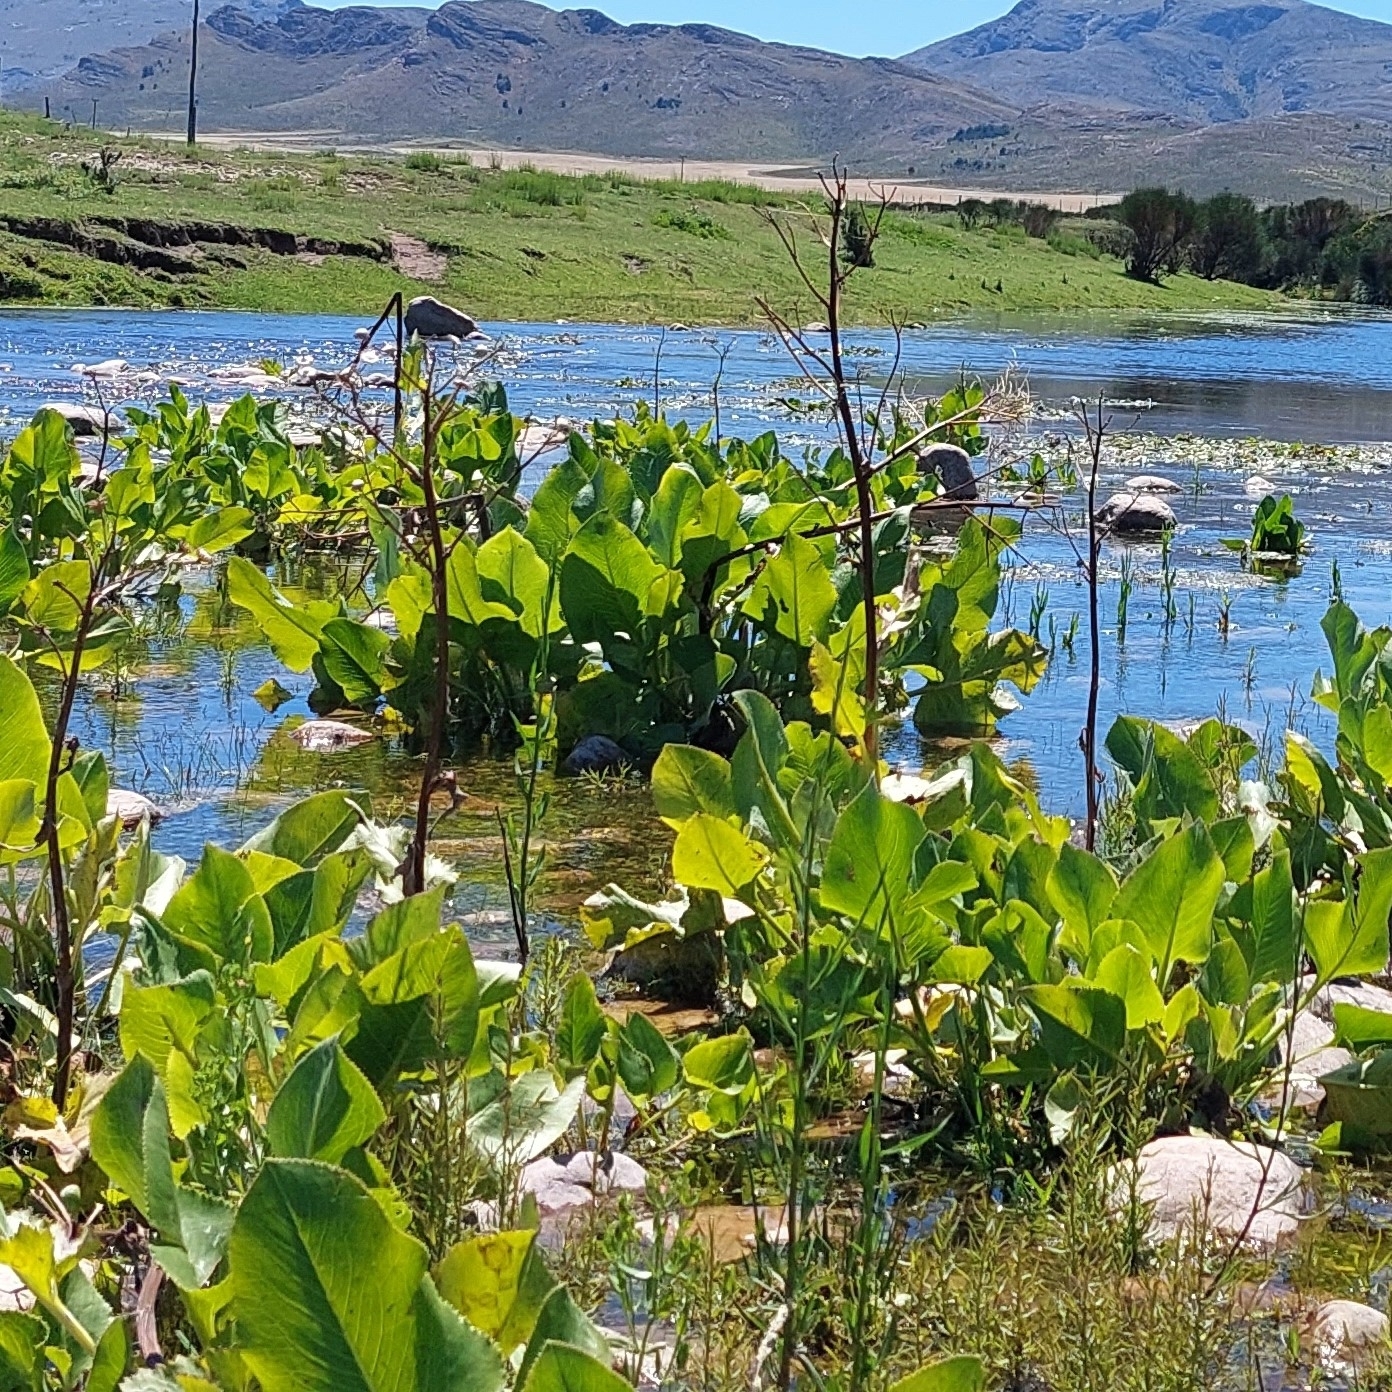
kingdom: Plantae
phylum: Tracheophyta
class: Magnoliopsida
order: Asterales
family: Asteraceae
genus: Senecio
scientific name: Senecio bonariensis
